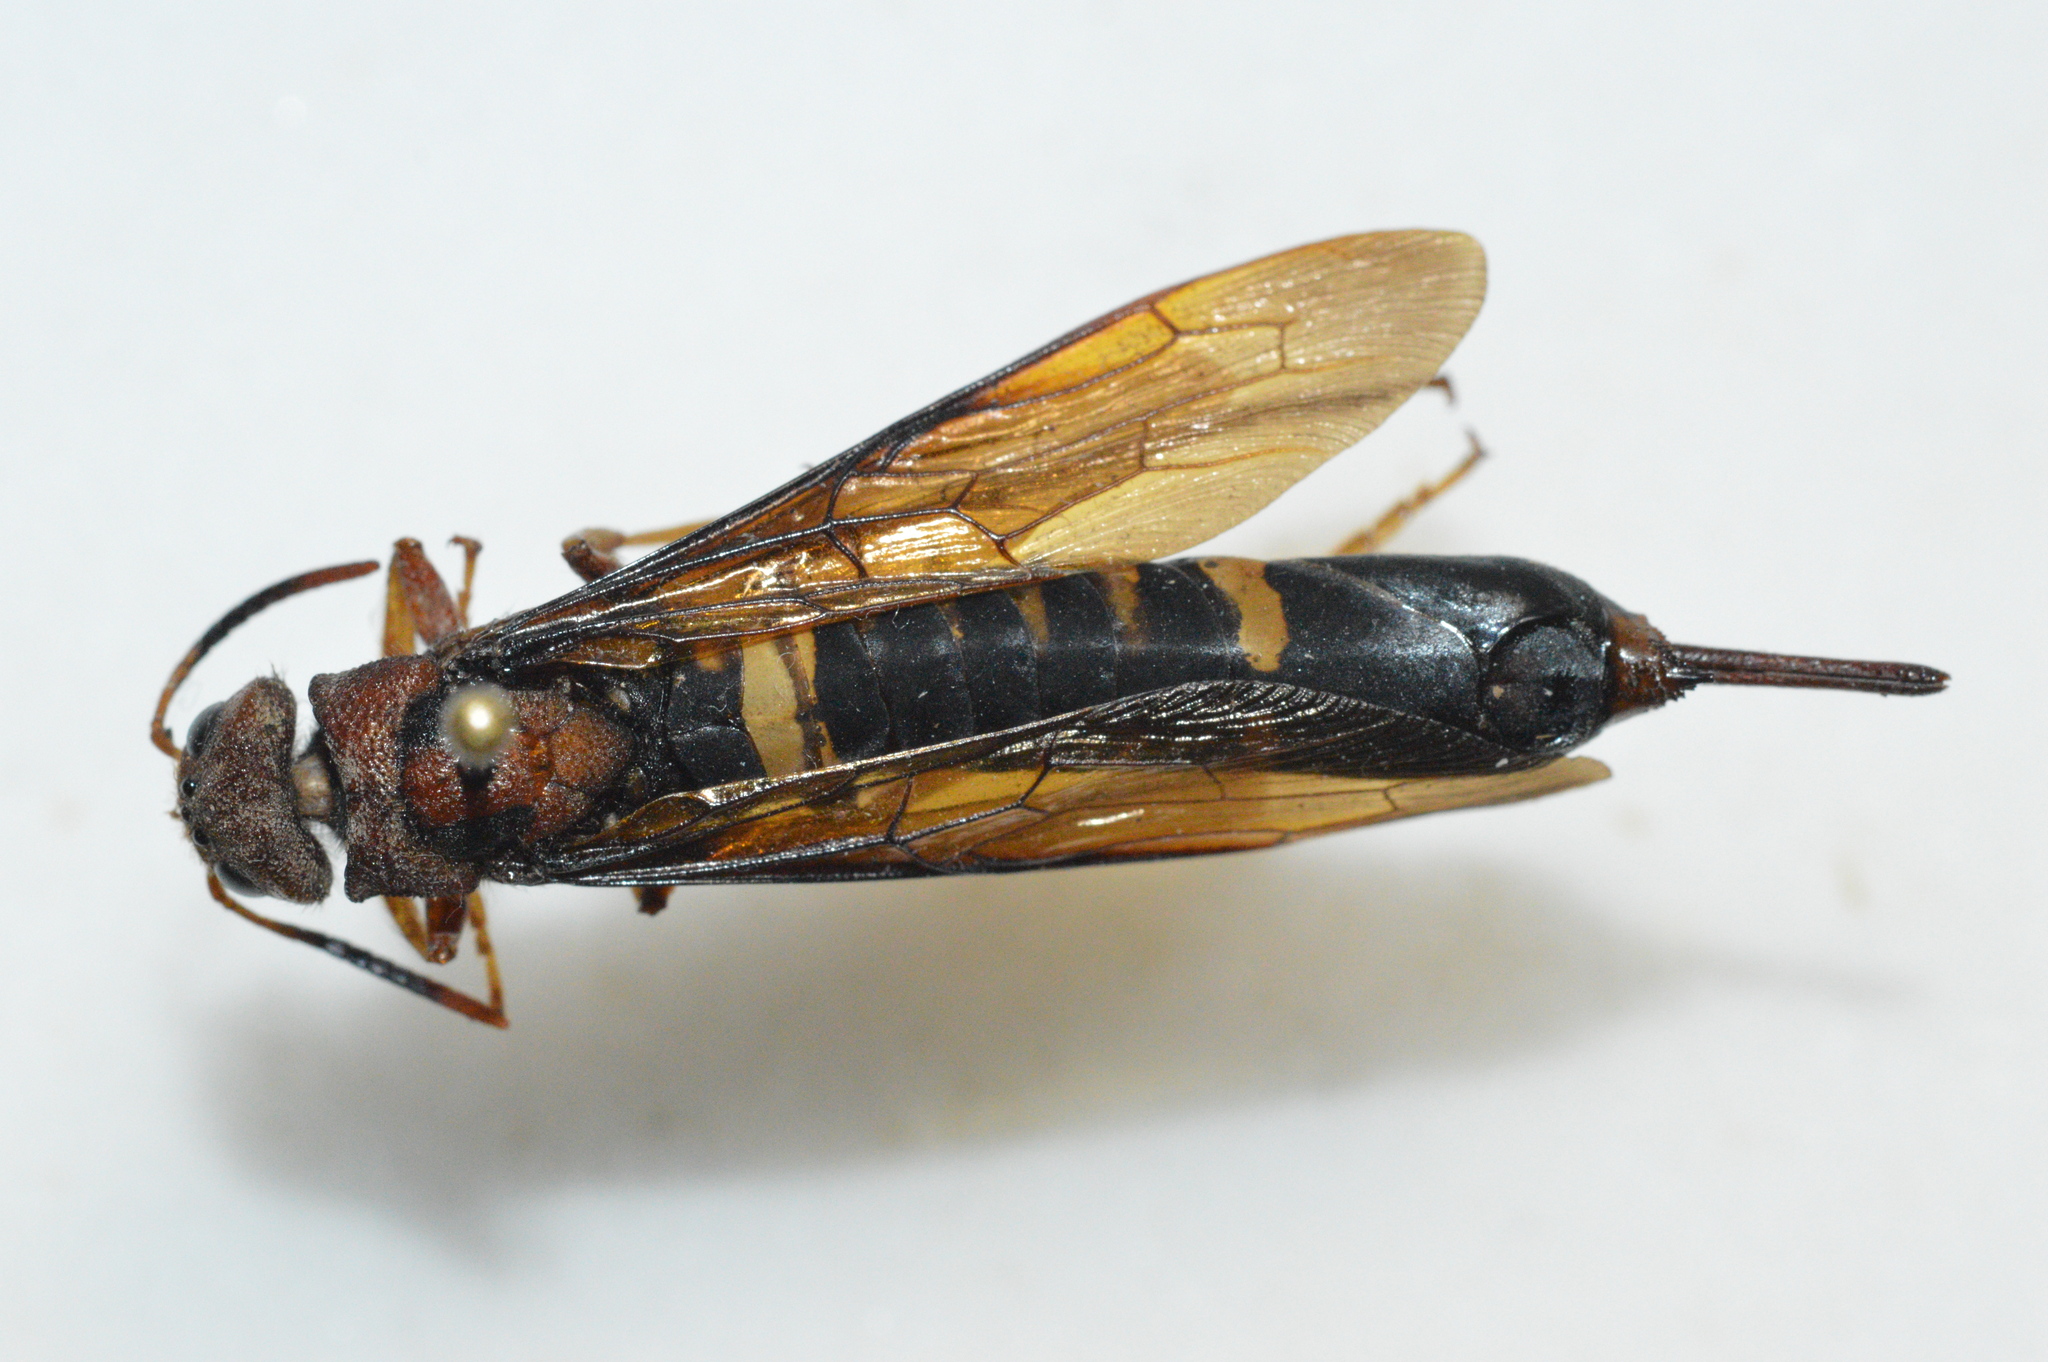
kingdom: Animalia
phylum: Arthropoda
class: Insecta
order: Hymenoptera
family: Siricidae
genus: Tremex
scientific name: Tremex columba
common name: Wasp
